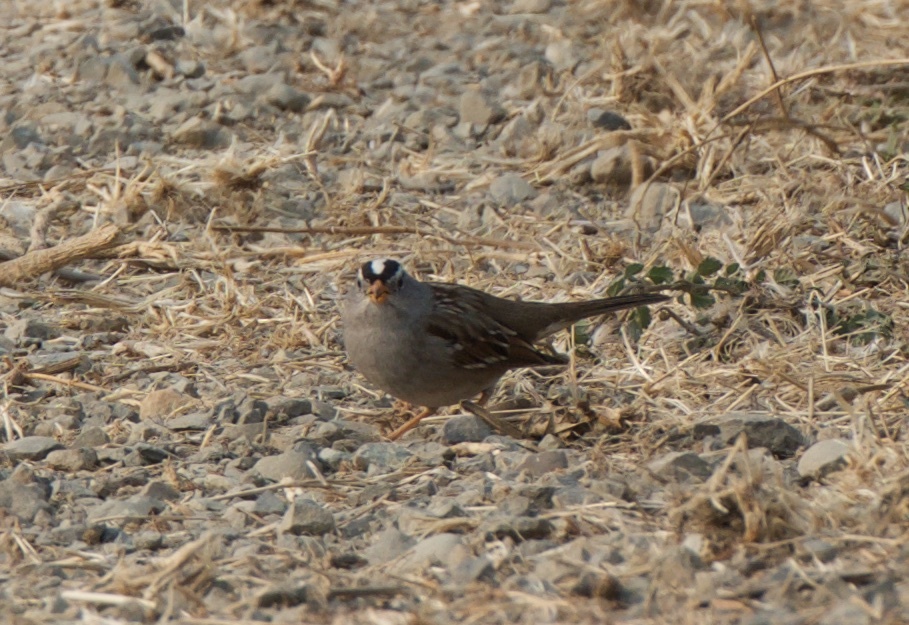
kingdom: Animalia
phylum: Chordata
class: Aves
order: Passeriformes
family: Passerellidae
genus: Zonotrichia
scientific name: Zonotrichia leucophrys
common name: White-crowned sparrow
